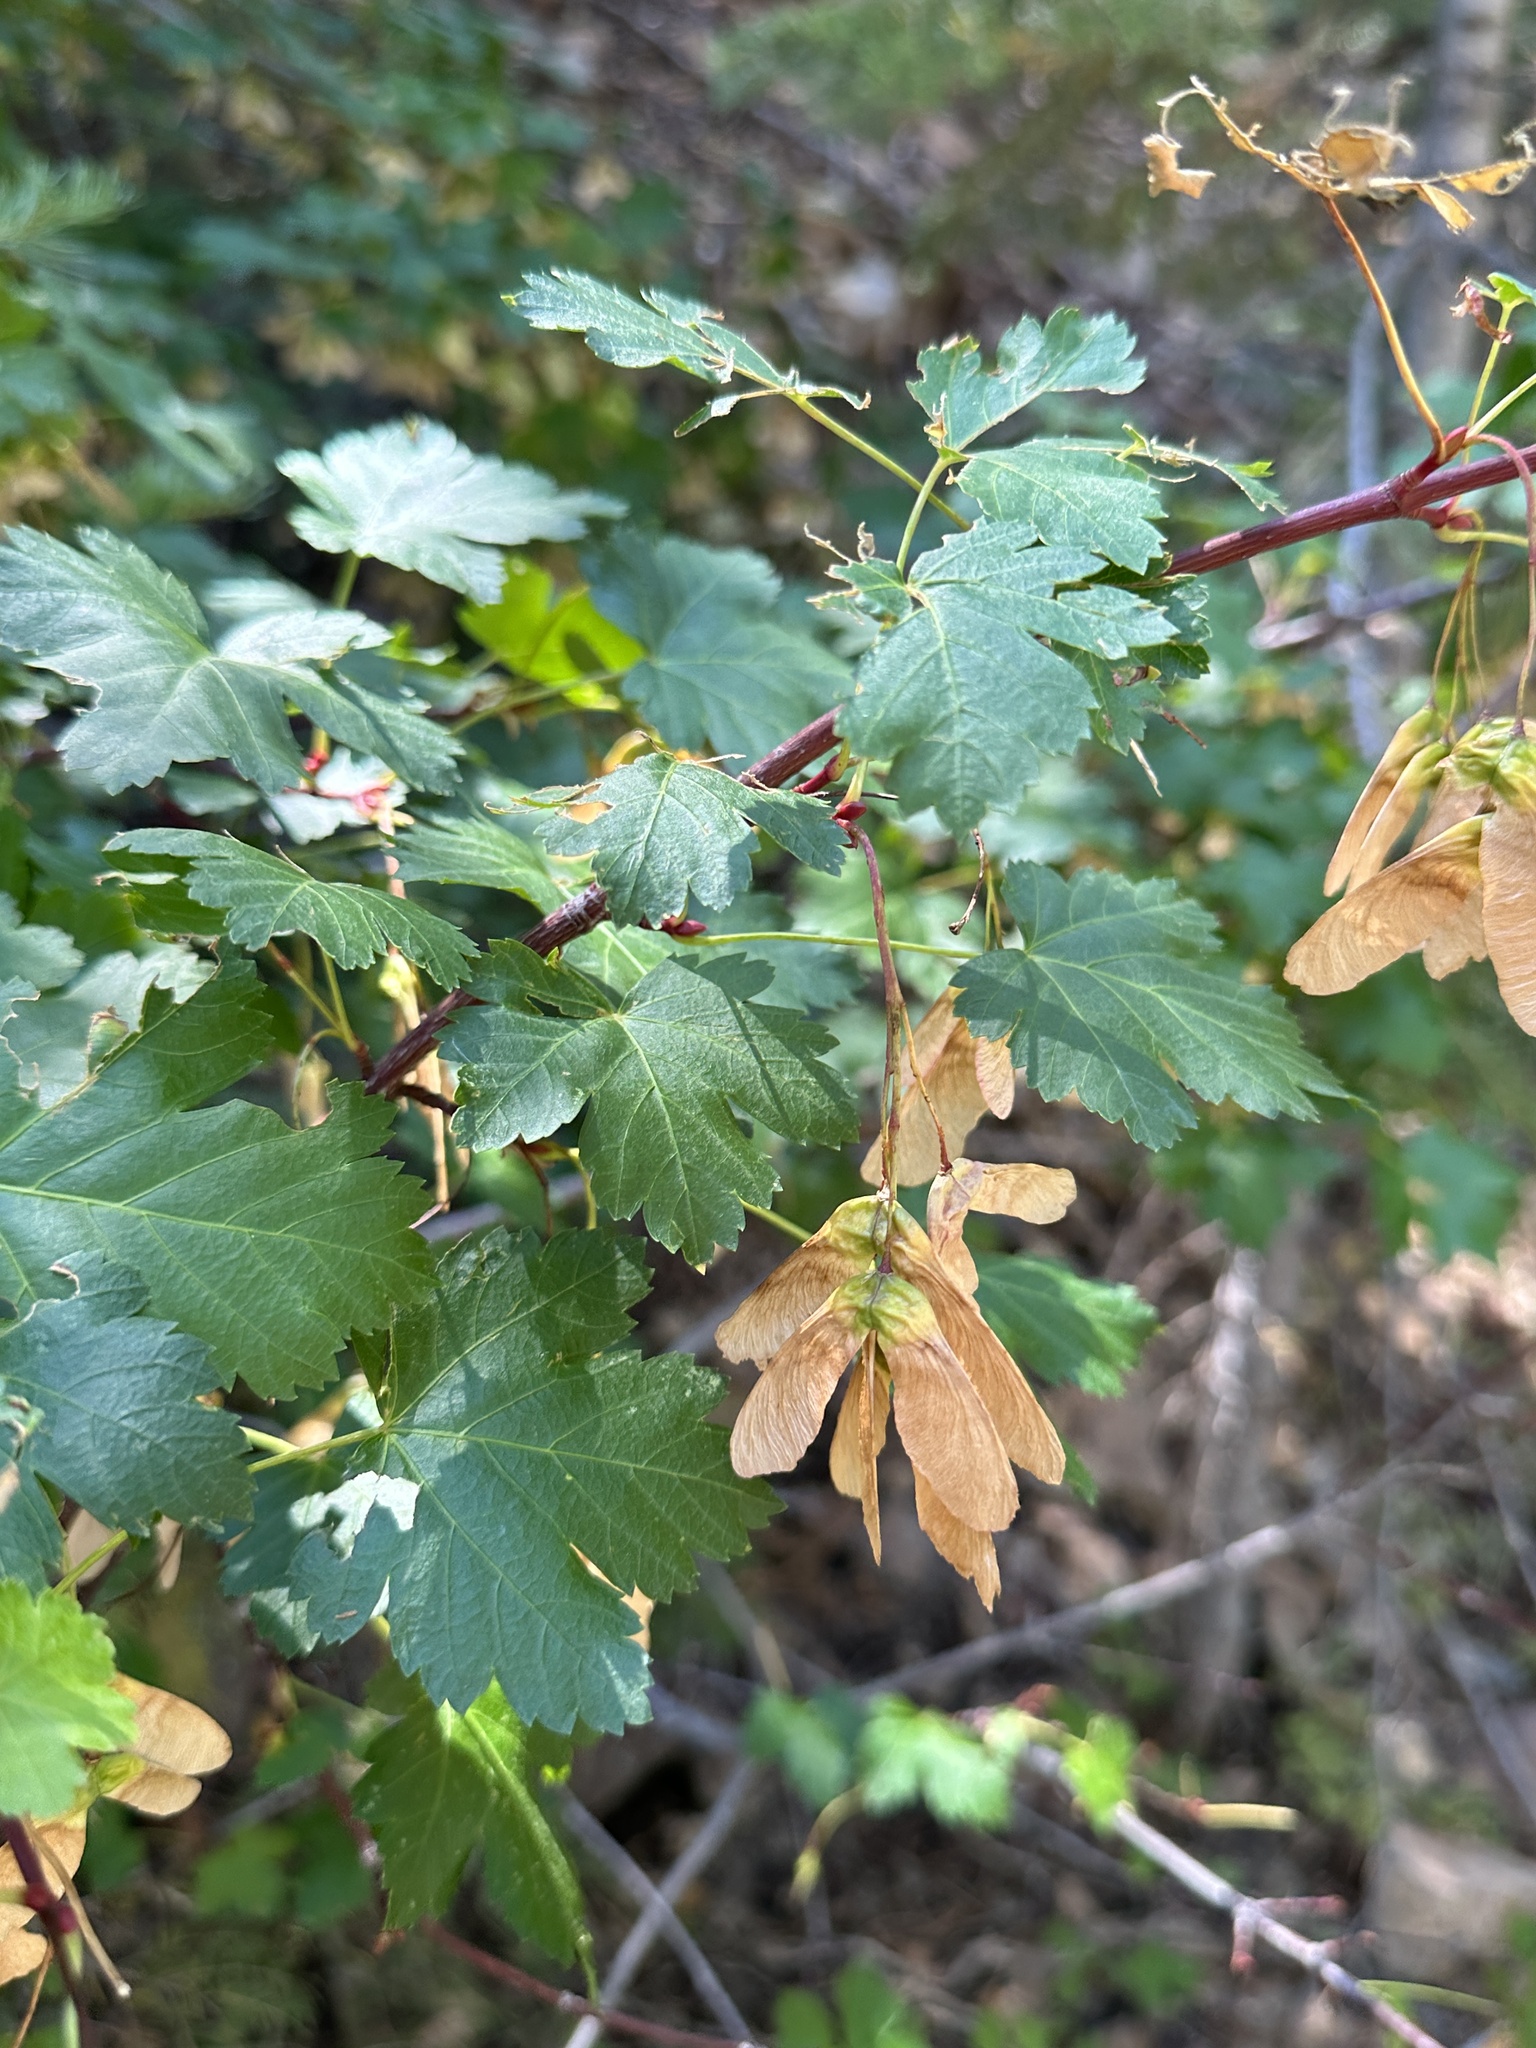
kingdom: Plantae
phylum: Tracheophyta
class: Magnoliopsida
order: Sapindales
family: Sapindaceae
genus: Acer
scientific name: Acer glabrum
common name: Rocky mountain maple
